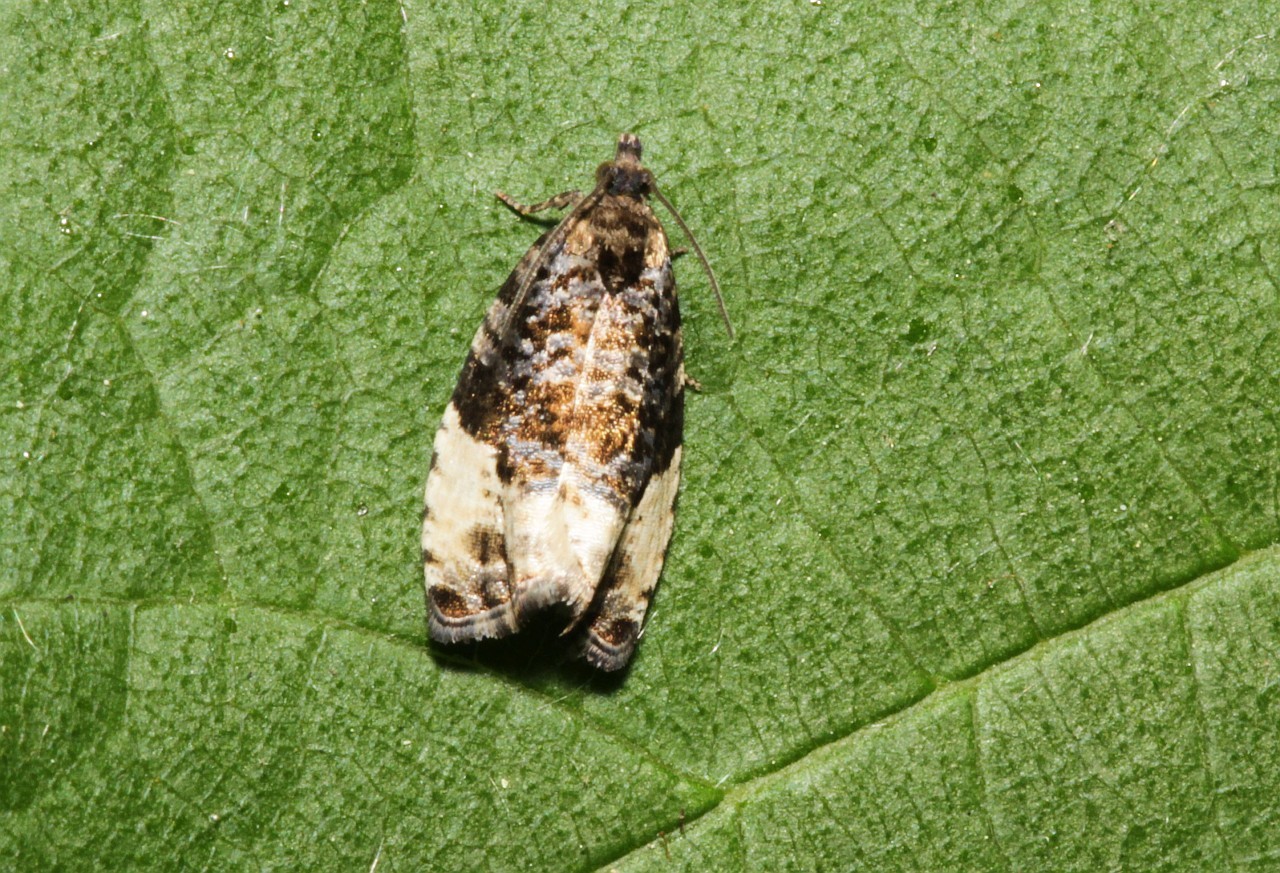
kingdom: Animalia
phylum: Arthropoda
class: Insecta
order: Lepidoptera
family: Tortricidae
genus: Hedya
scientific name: Hedya pruniana
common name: Plum tortrix
